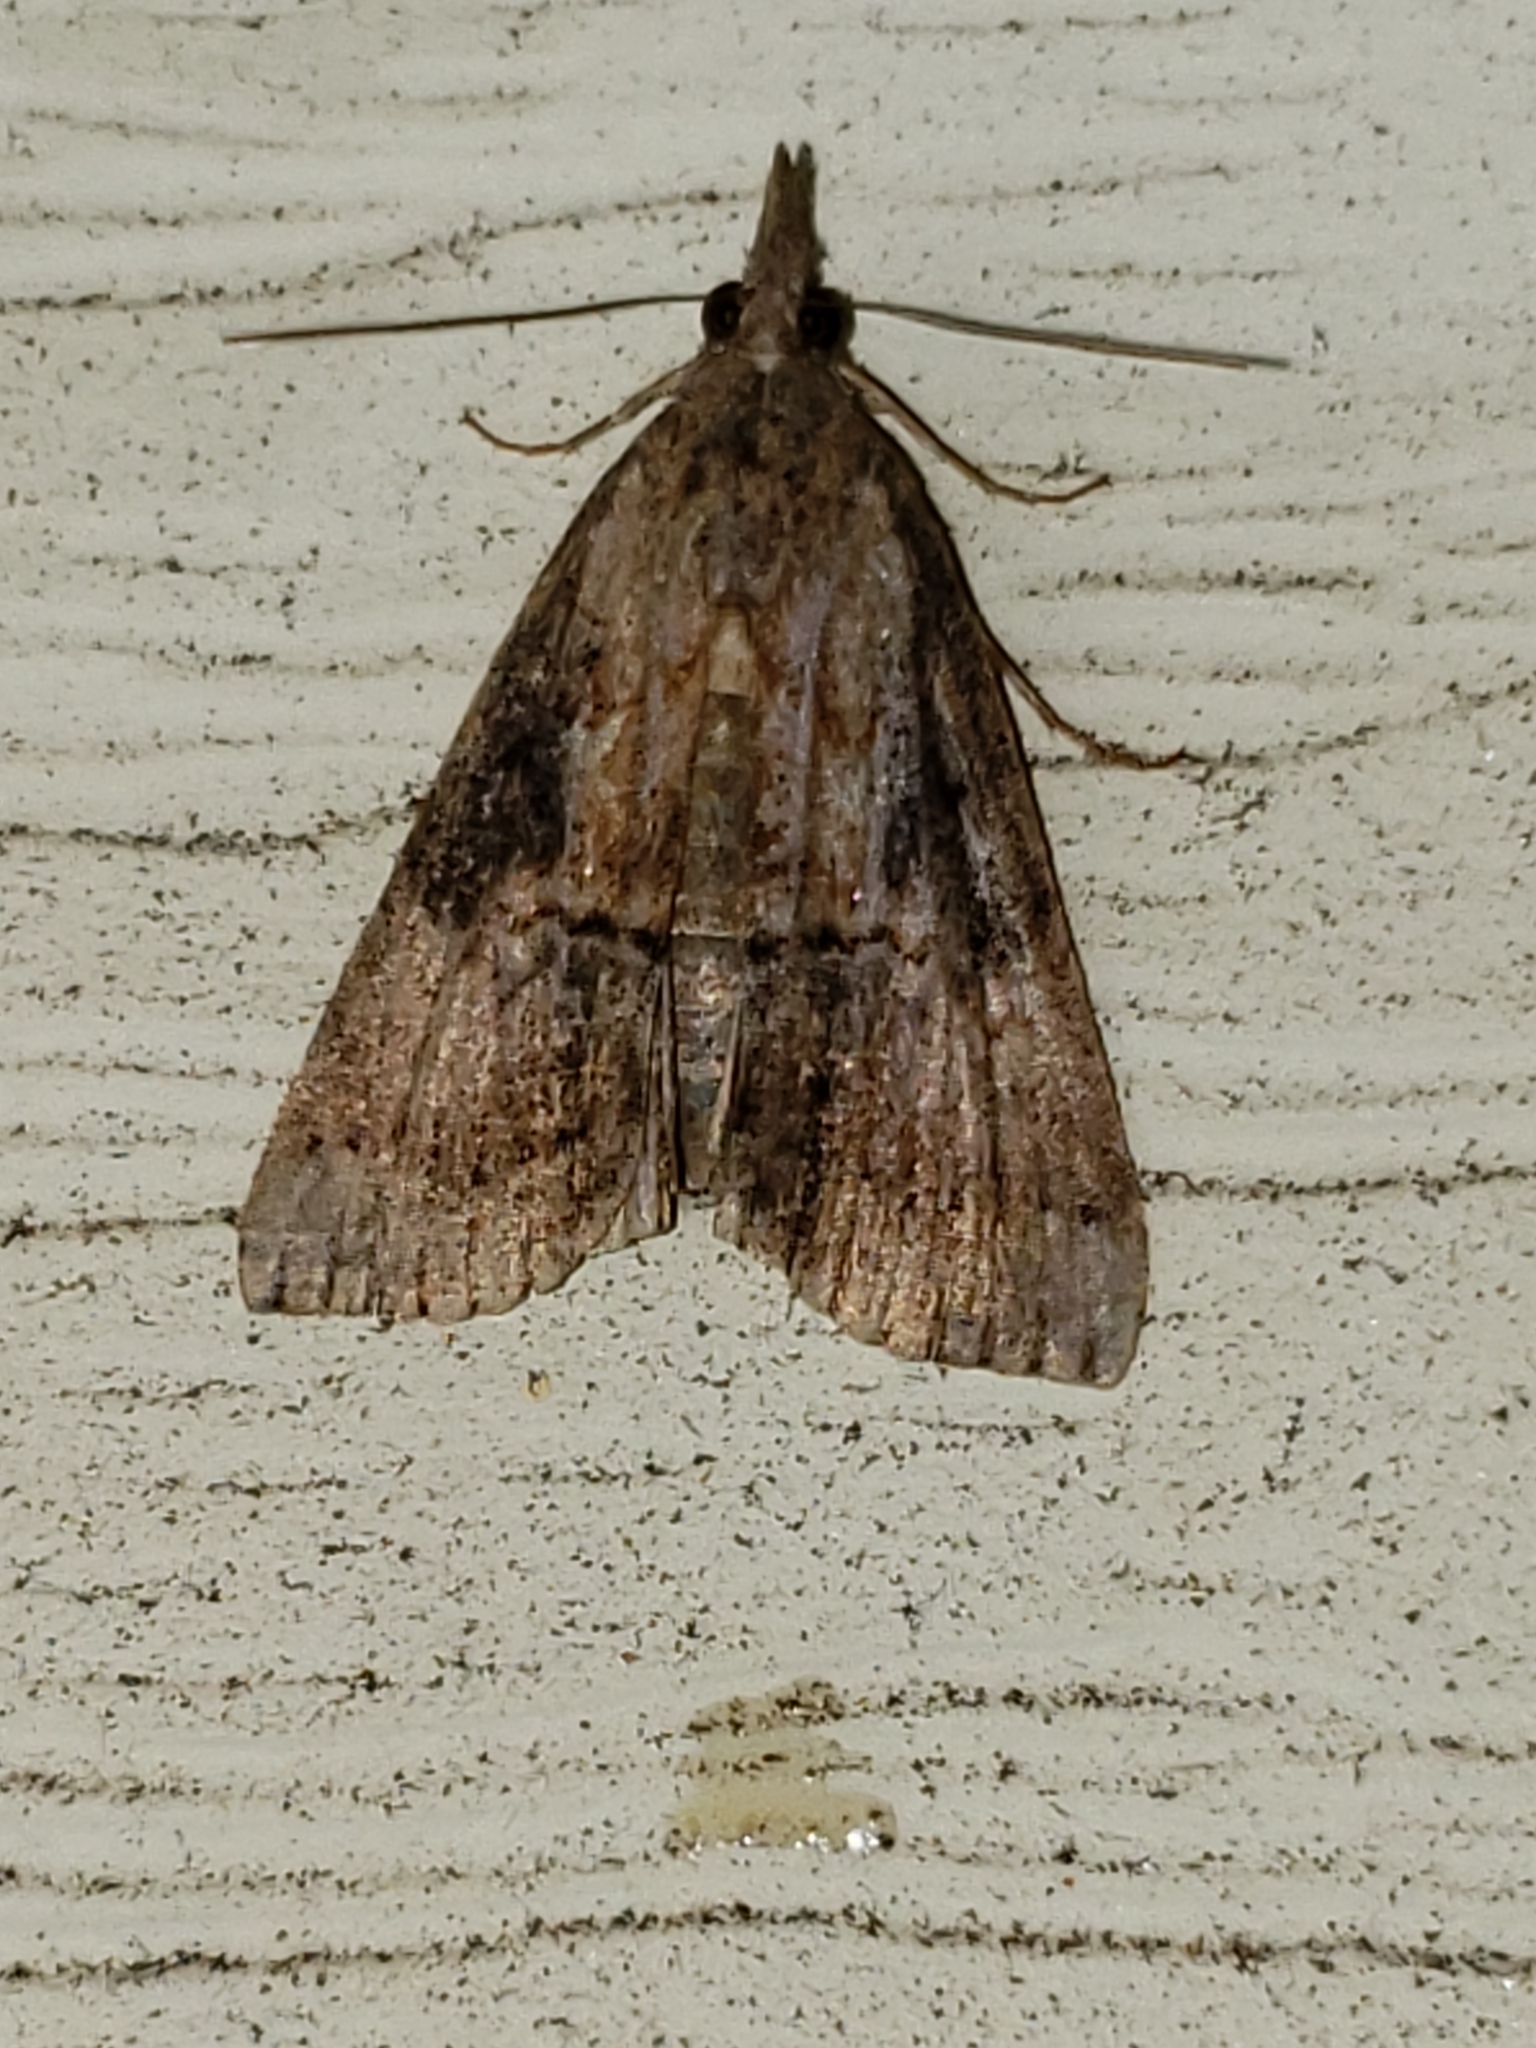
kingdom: Animalia
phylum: Arthropoda
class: Insecta
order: Lepidoptera
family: Erebidae
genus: Hypena
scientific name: Hypena scabra
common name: Green cloverworm
